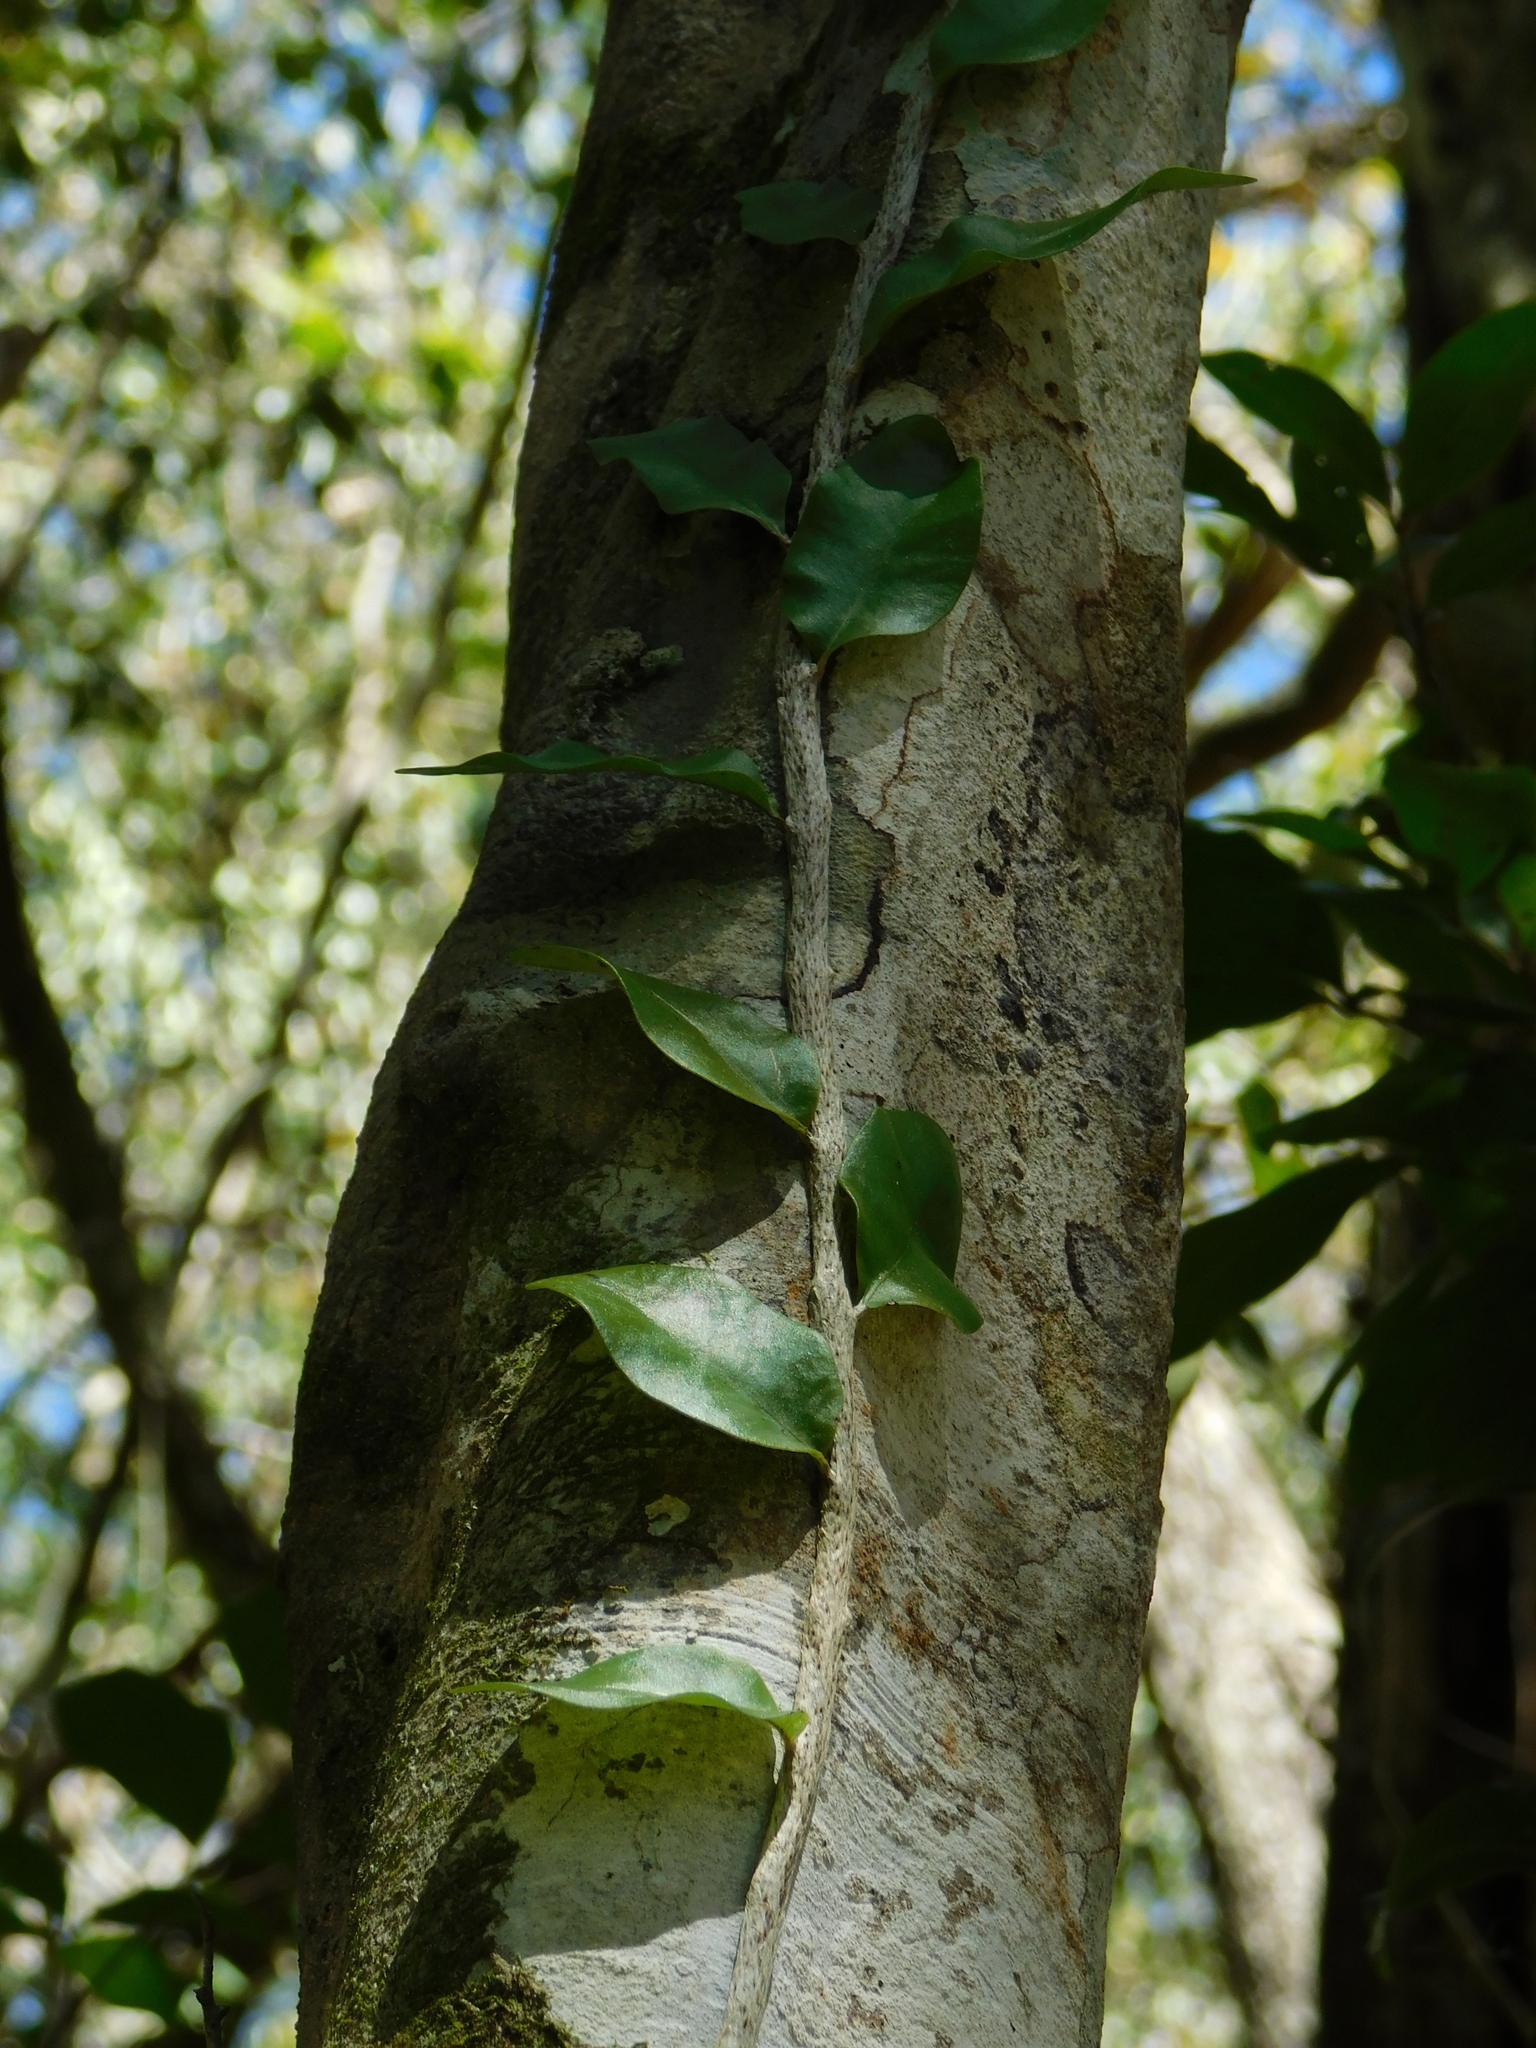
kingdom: Plantae
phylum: Tracheophyta
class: Polypodiopsida
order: Polypodiales
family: Polypodiaceae
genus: Microgramma
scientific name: Microgramma nitida
